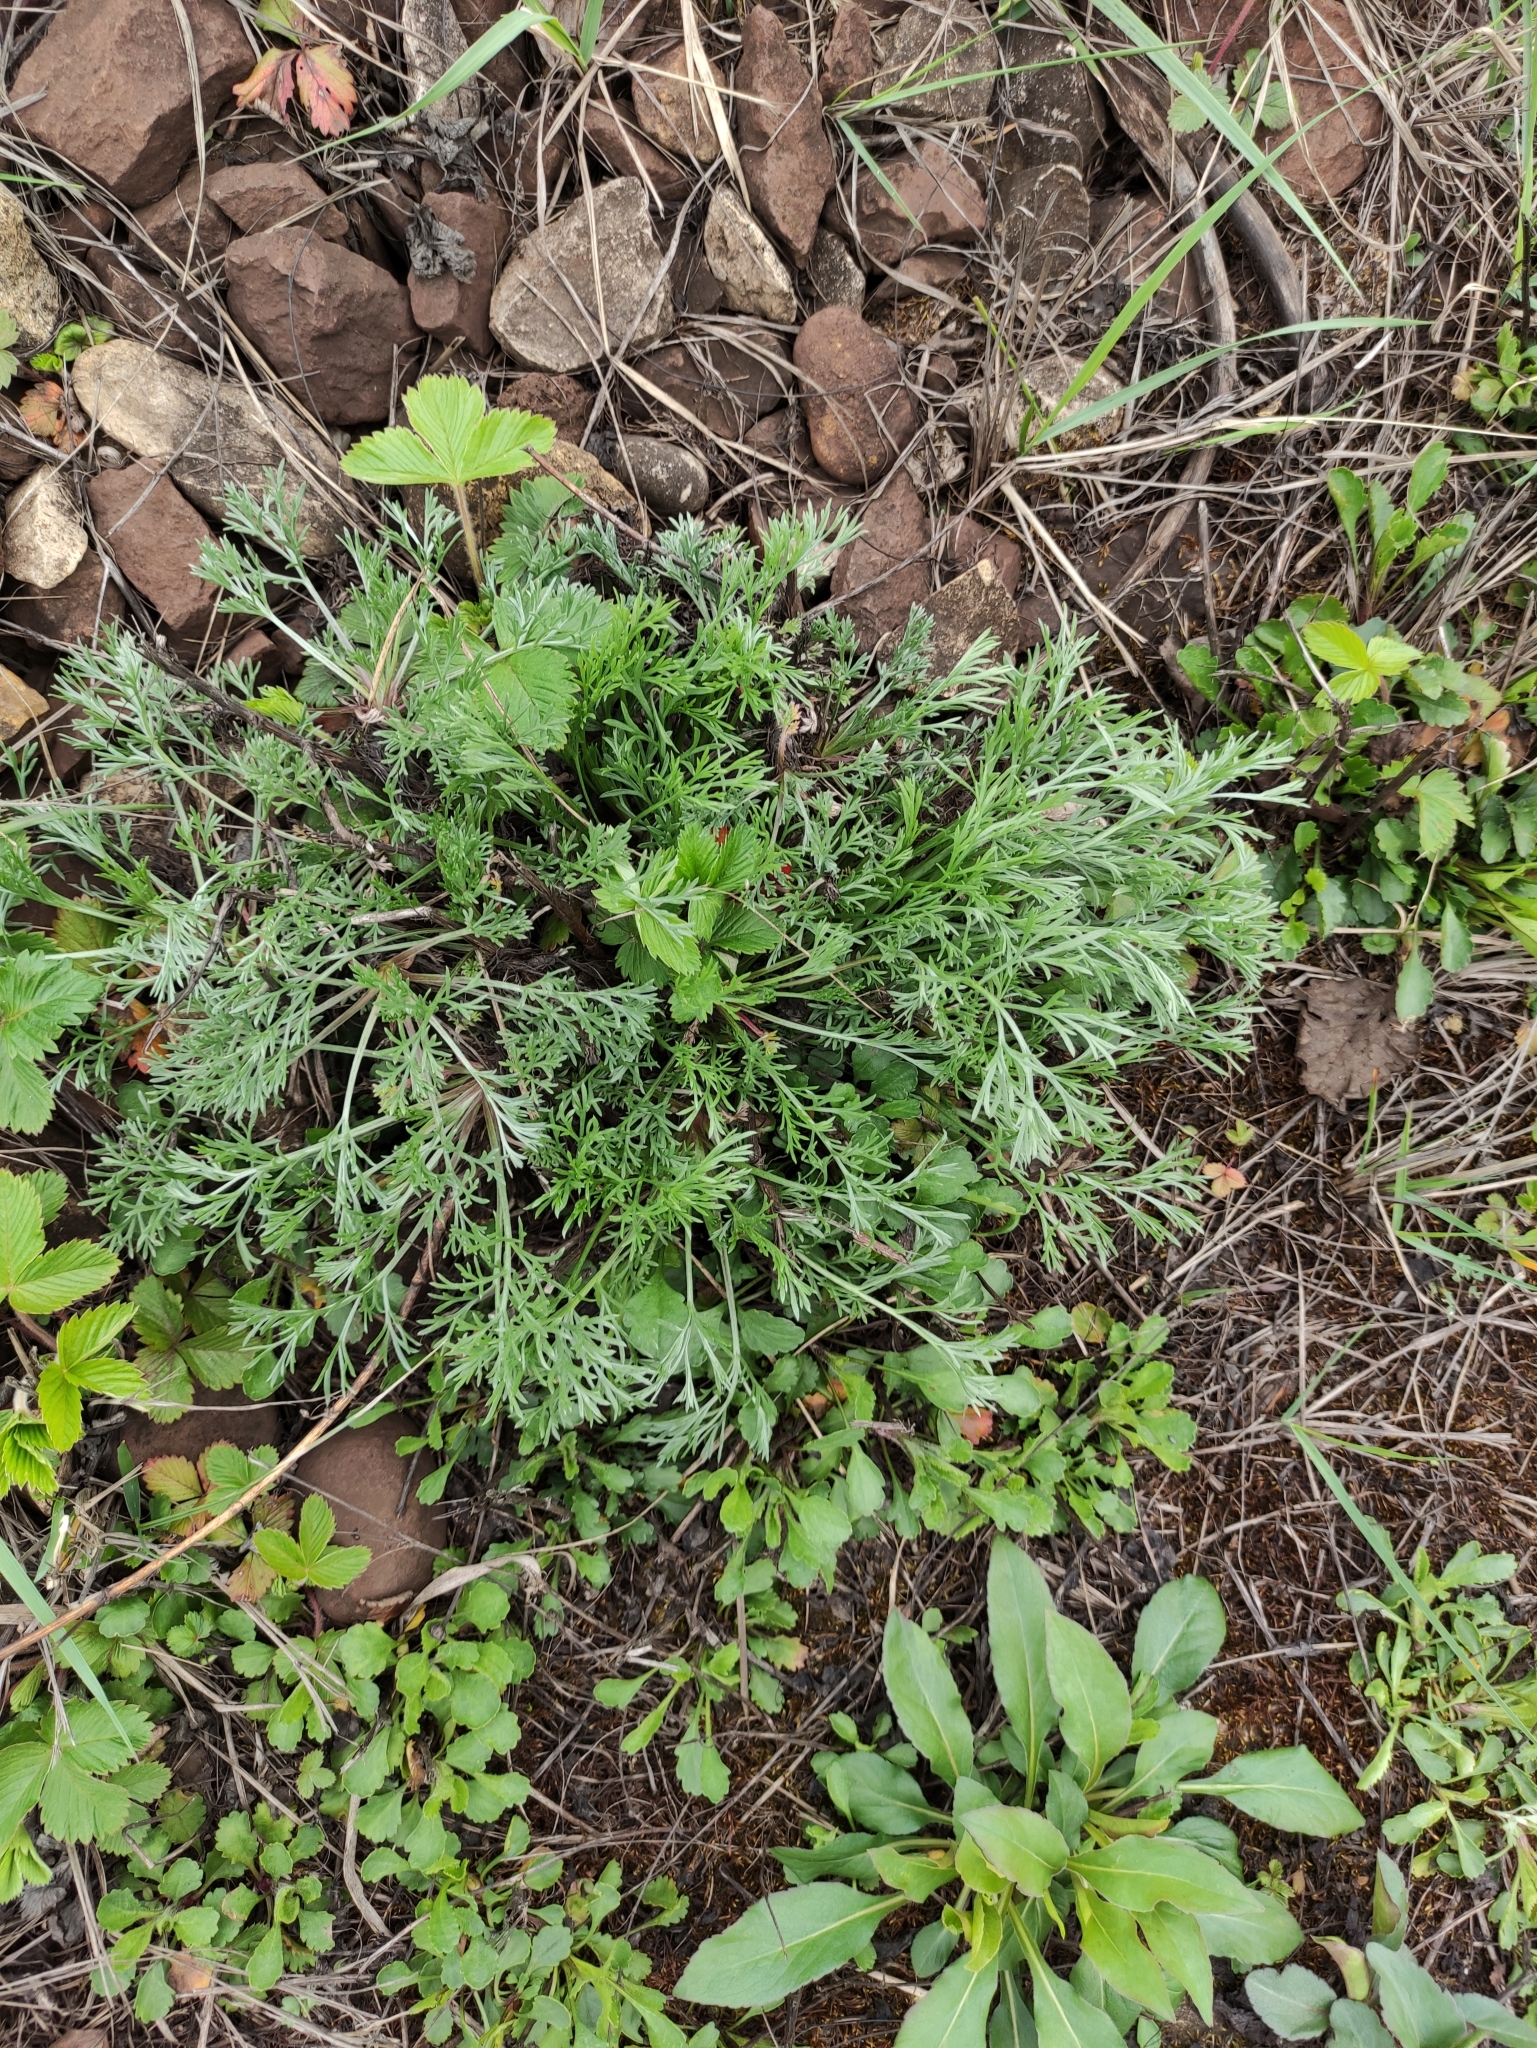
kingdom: Plantae
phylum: Tracheophyta
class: Magnoliopsida
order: Asterales
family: Asteraceae
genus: Artemisia
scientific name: Artemisia campestris
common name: Field wormwood
